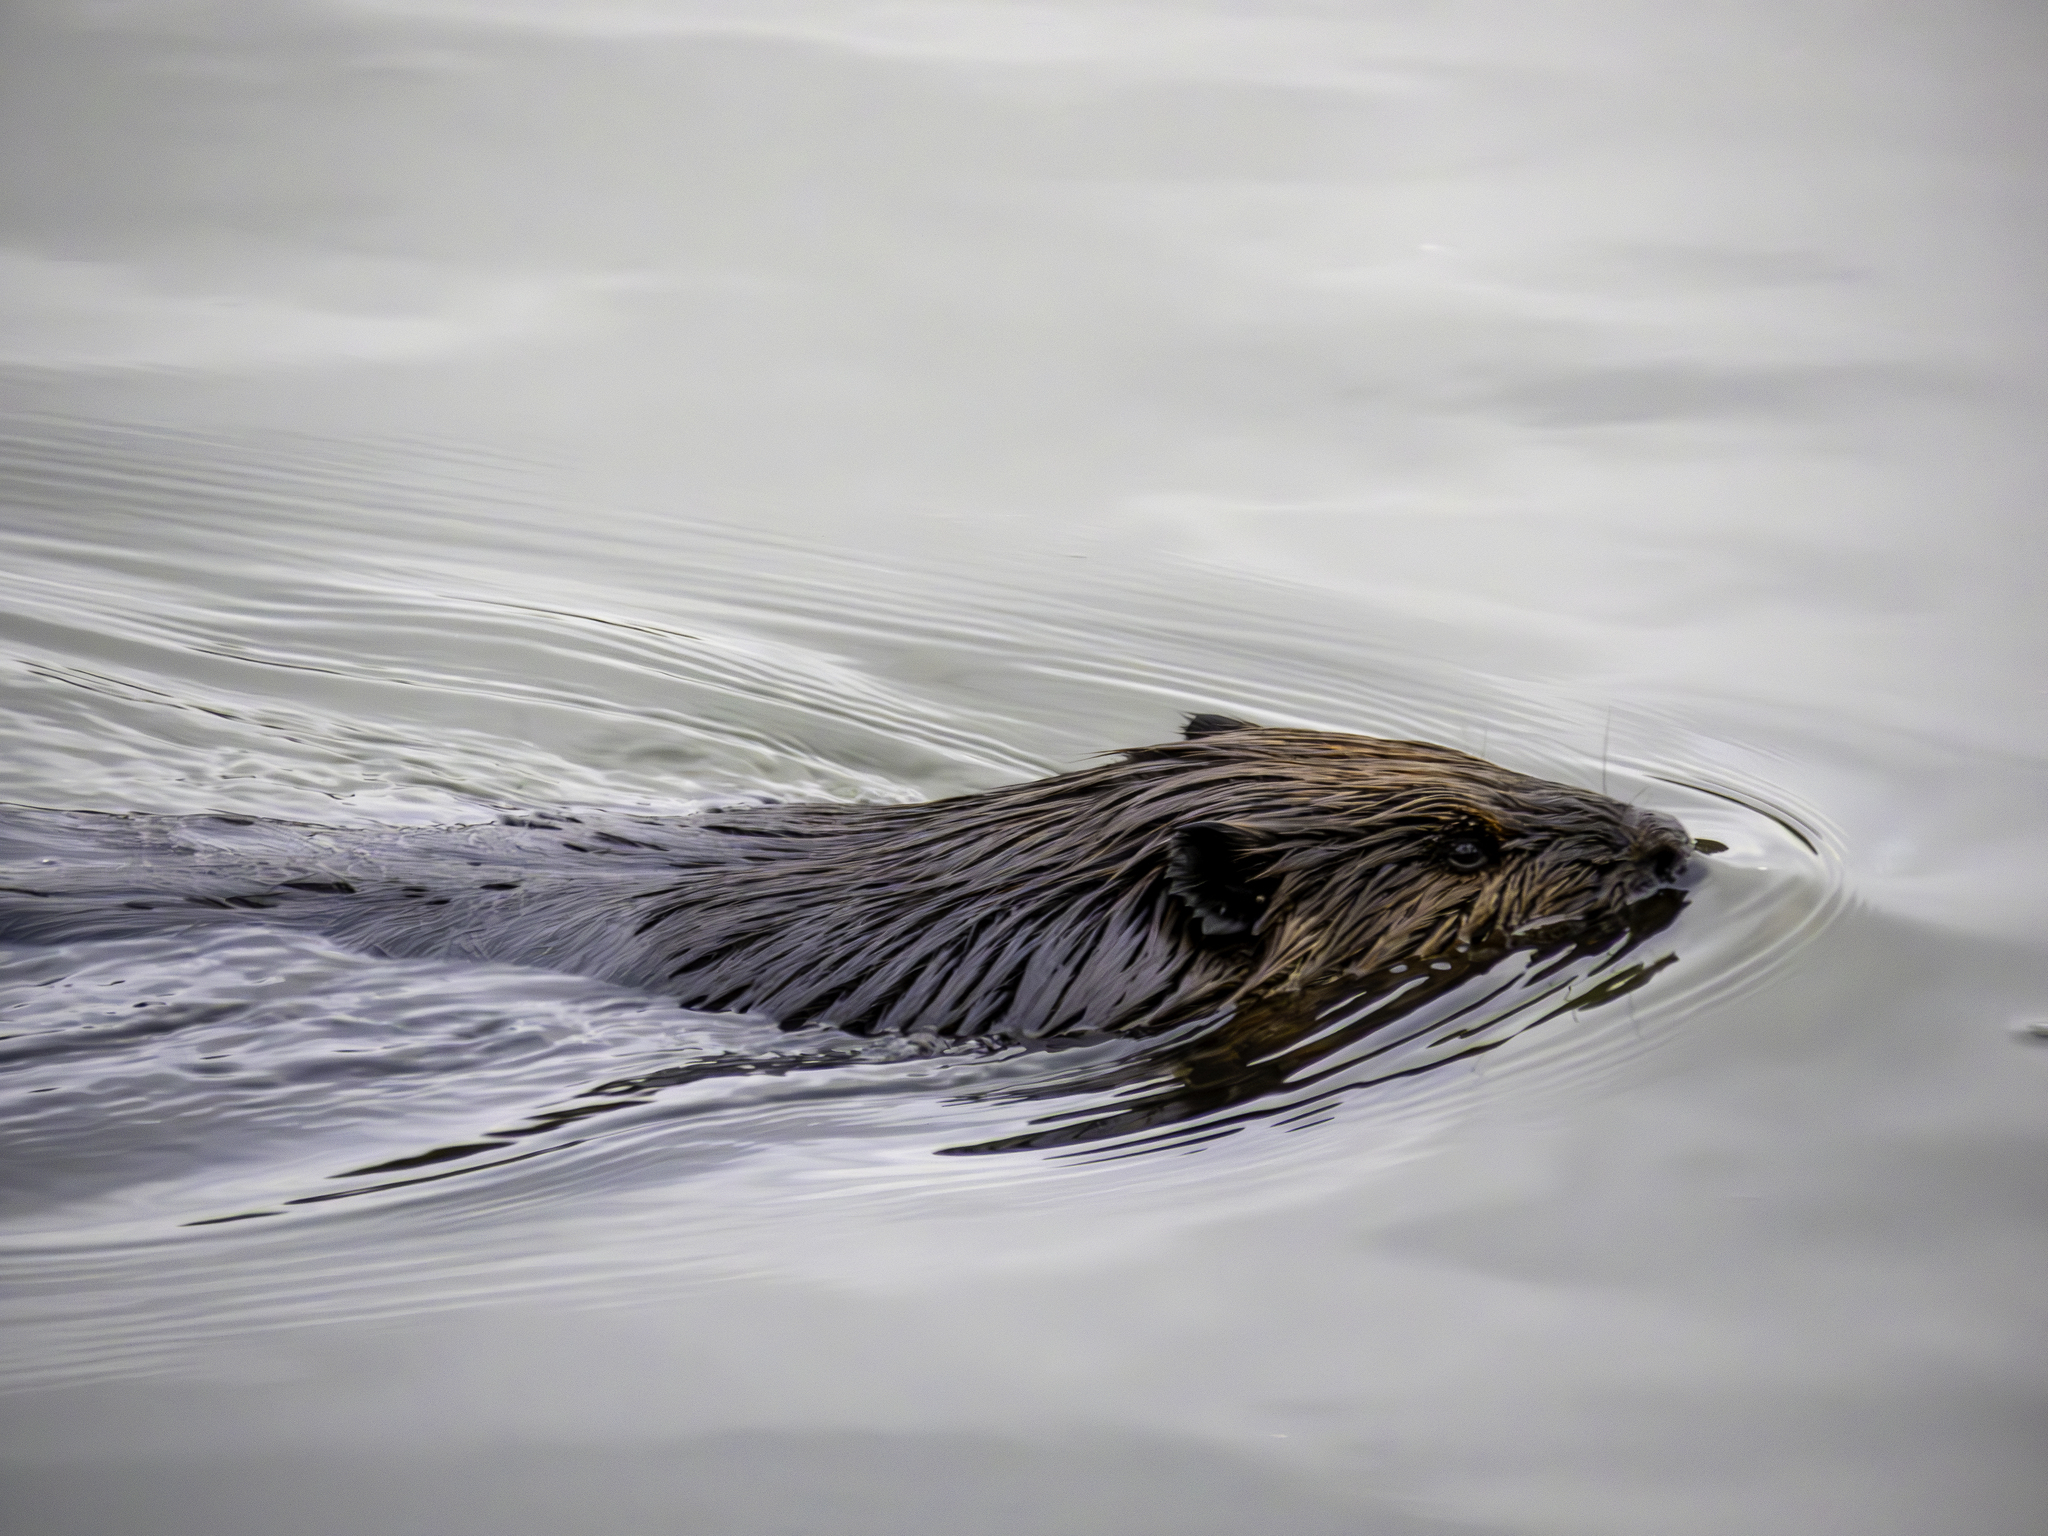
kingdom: Animalia
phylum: Chordata
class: Mammalia
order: Rodentia
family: Castoridae
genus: Castor
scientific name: Castor canadensis
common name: American beaver
